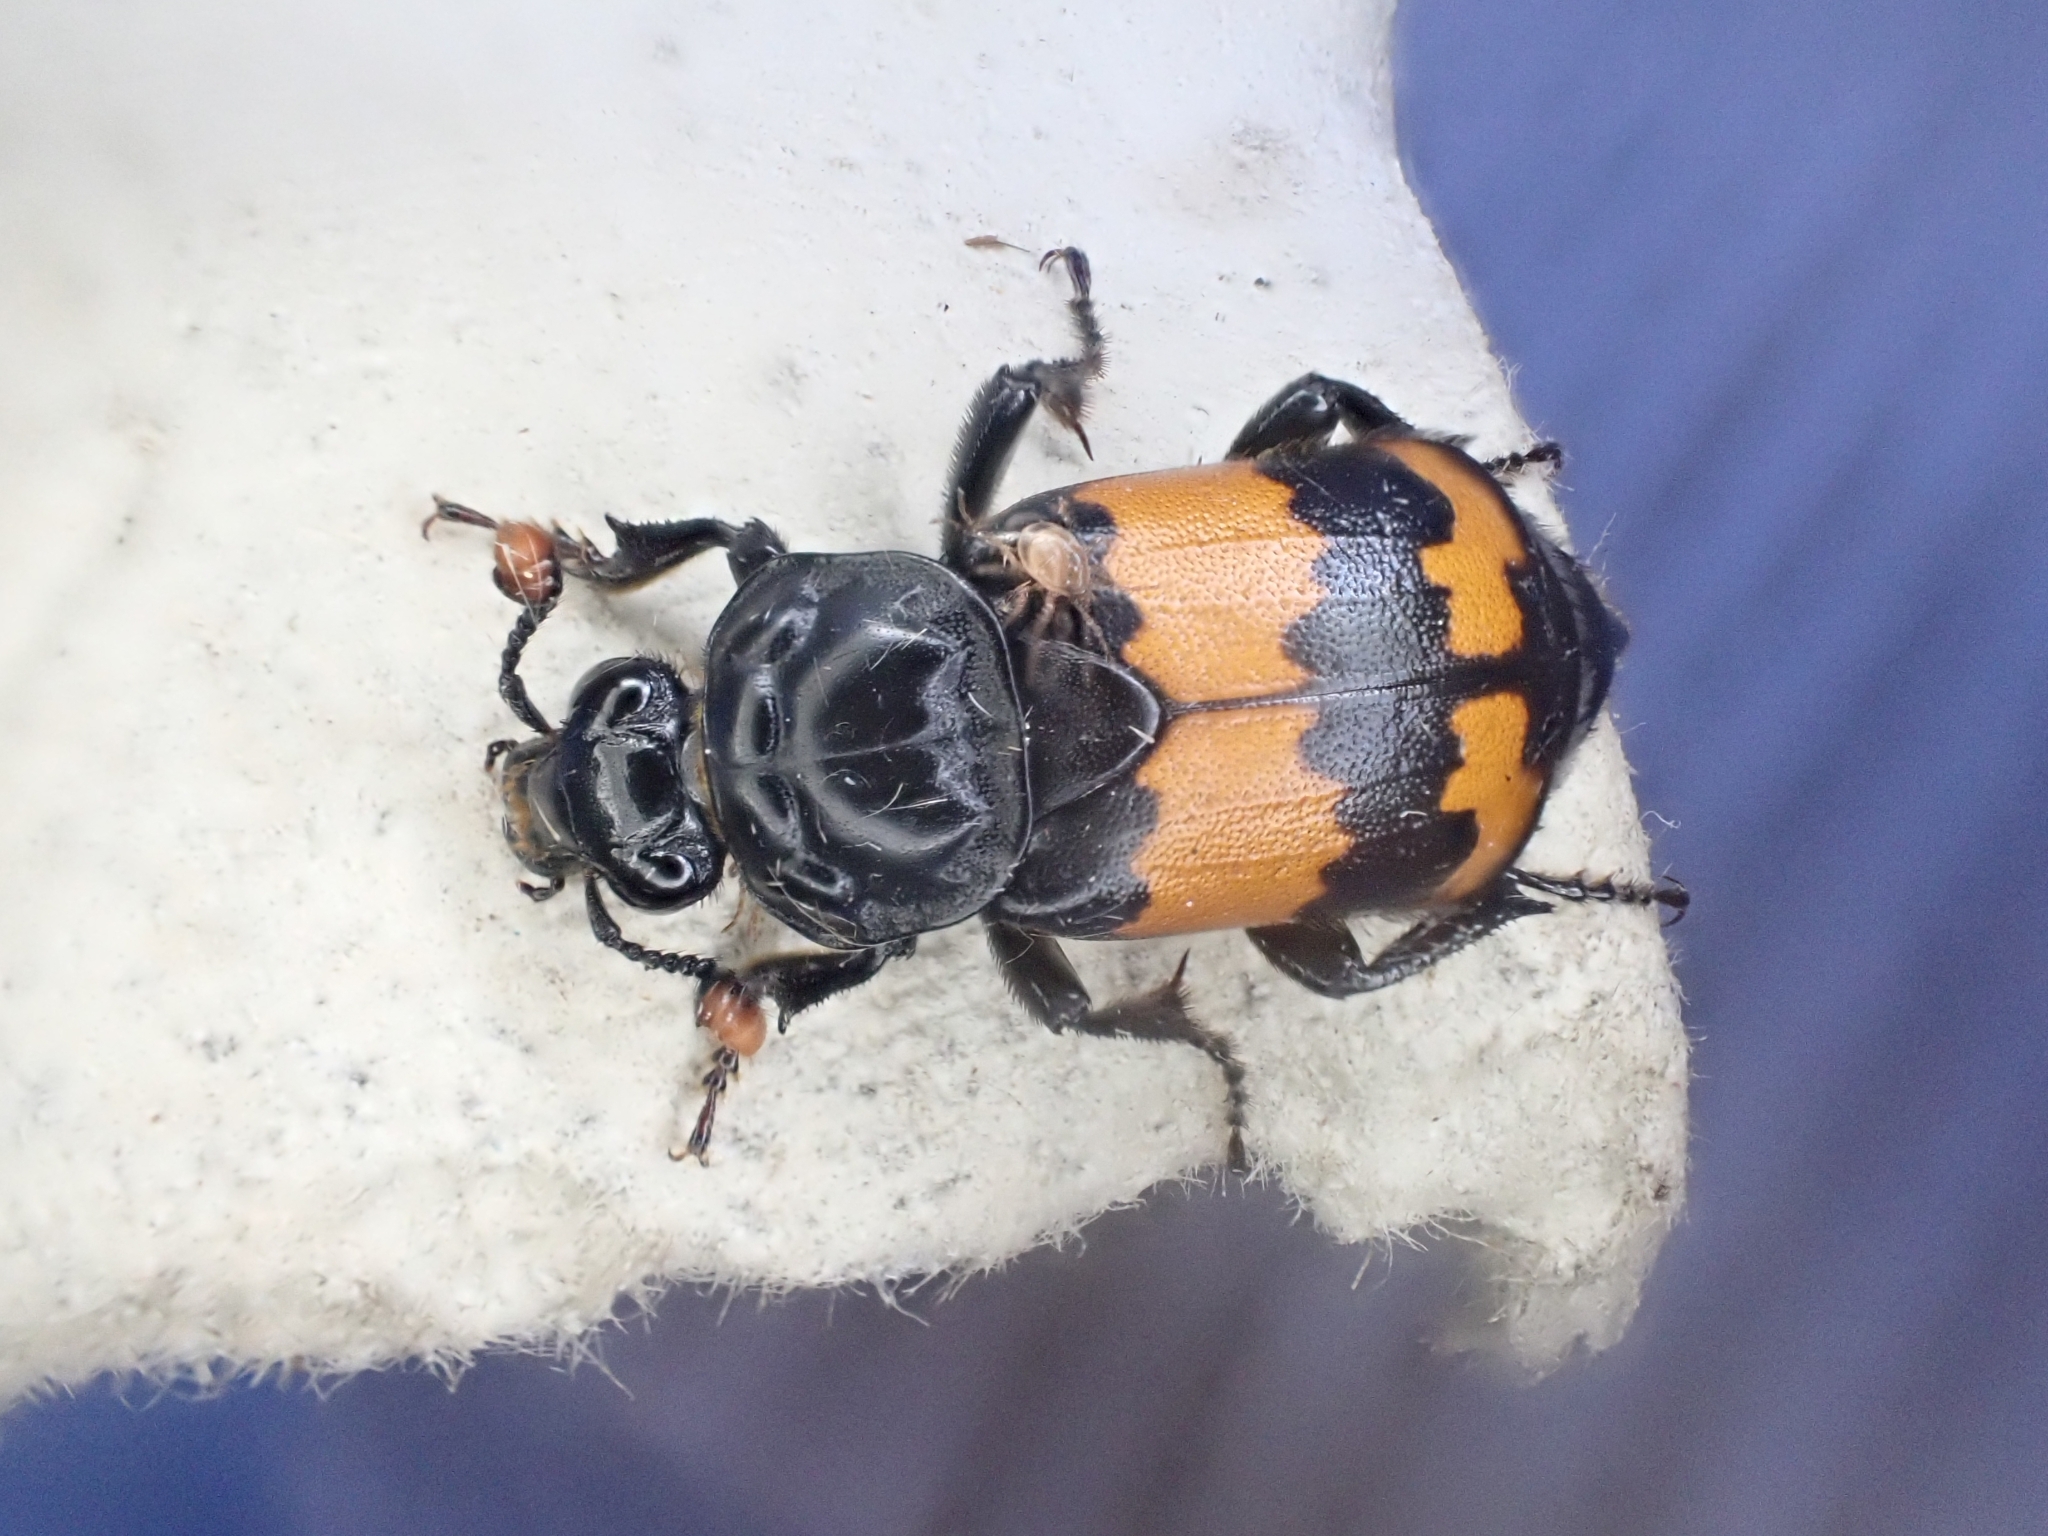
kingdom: Animalia
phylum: Arthropoda
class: Insecta
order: Coleoptera
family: Staphylinidae
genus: Nicrophorus
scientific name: Nicrophorus investigator
